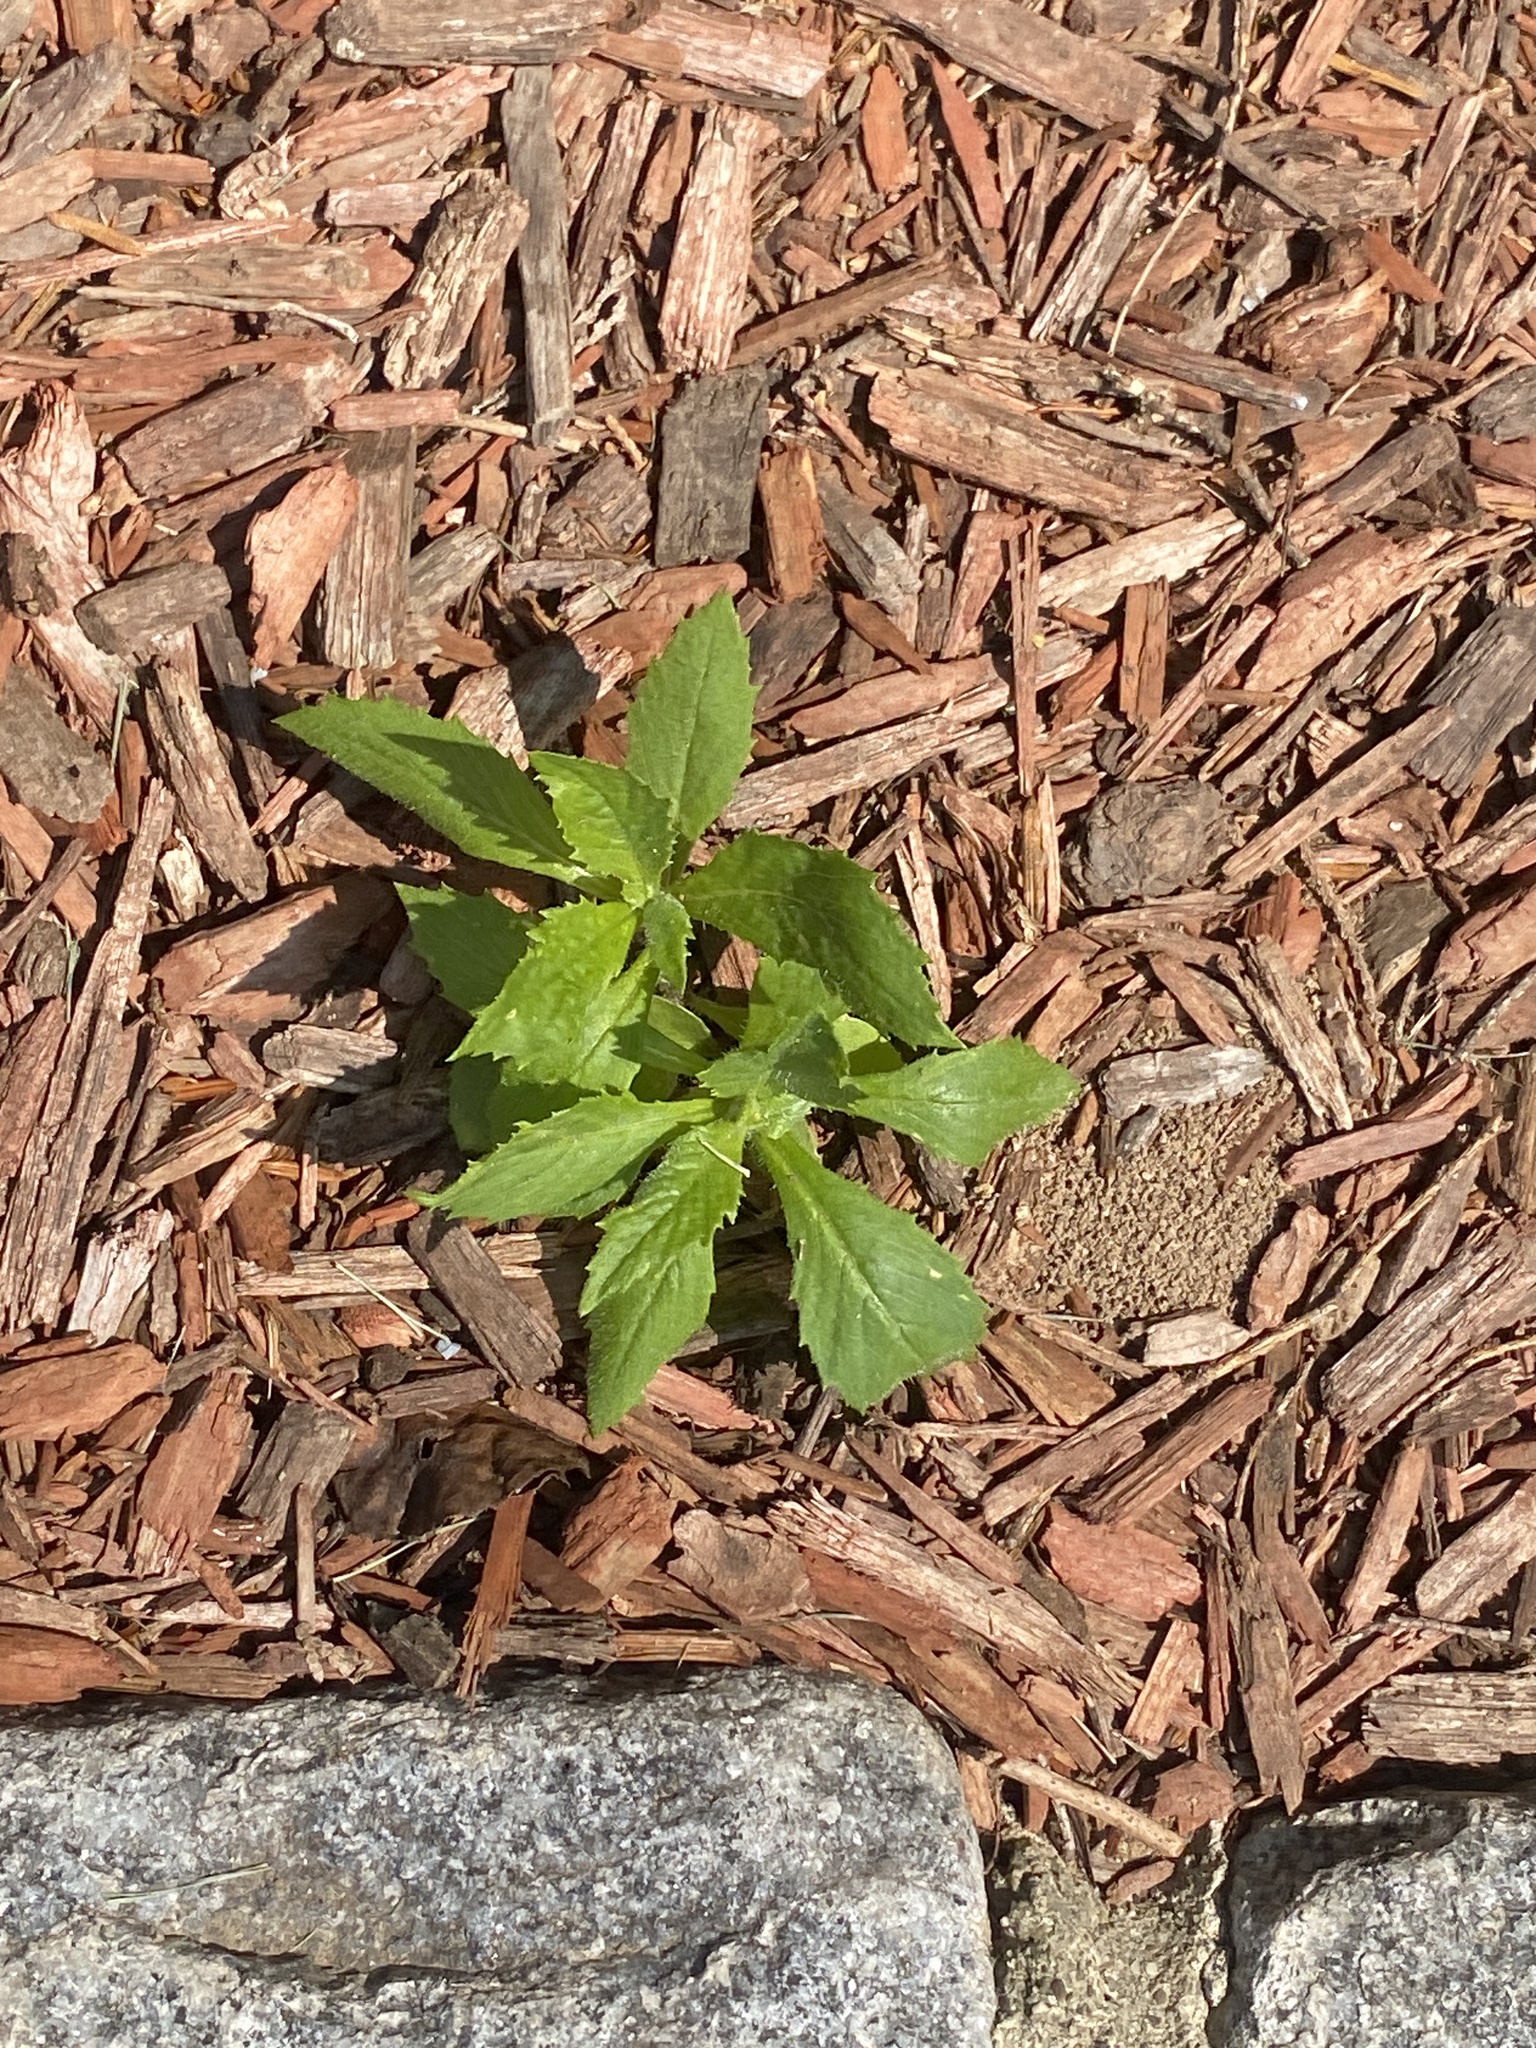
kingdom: Plantae
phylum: Tracheophyta
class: Magnoliopsida
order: Asterales
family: Asteraceae
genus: Erechtites
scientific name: Erechtites hieraciifolius
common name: American burnweed
